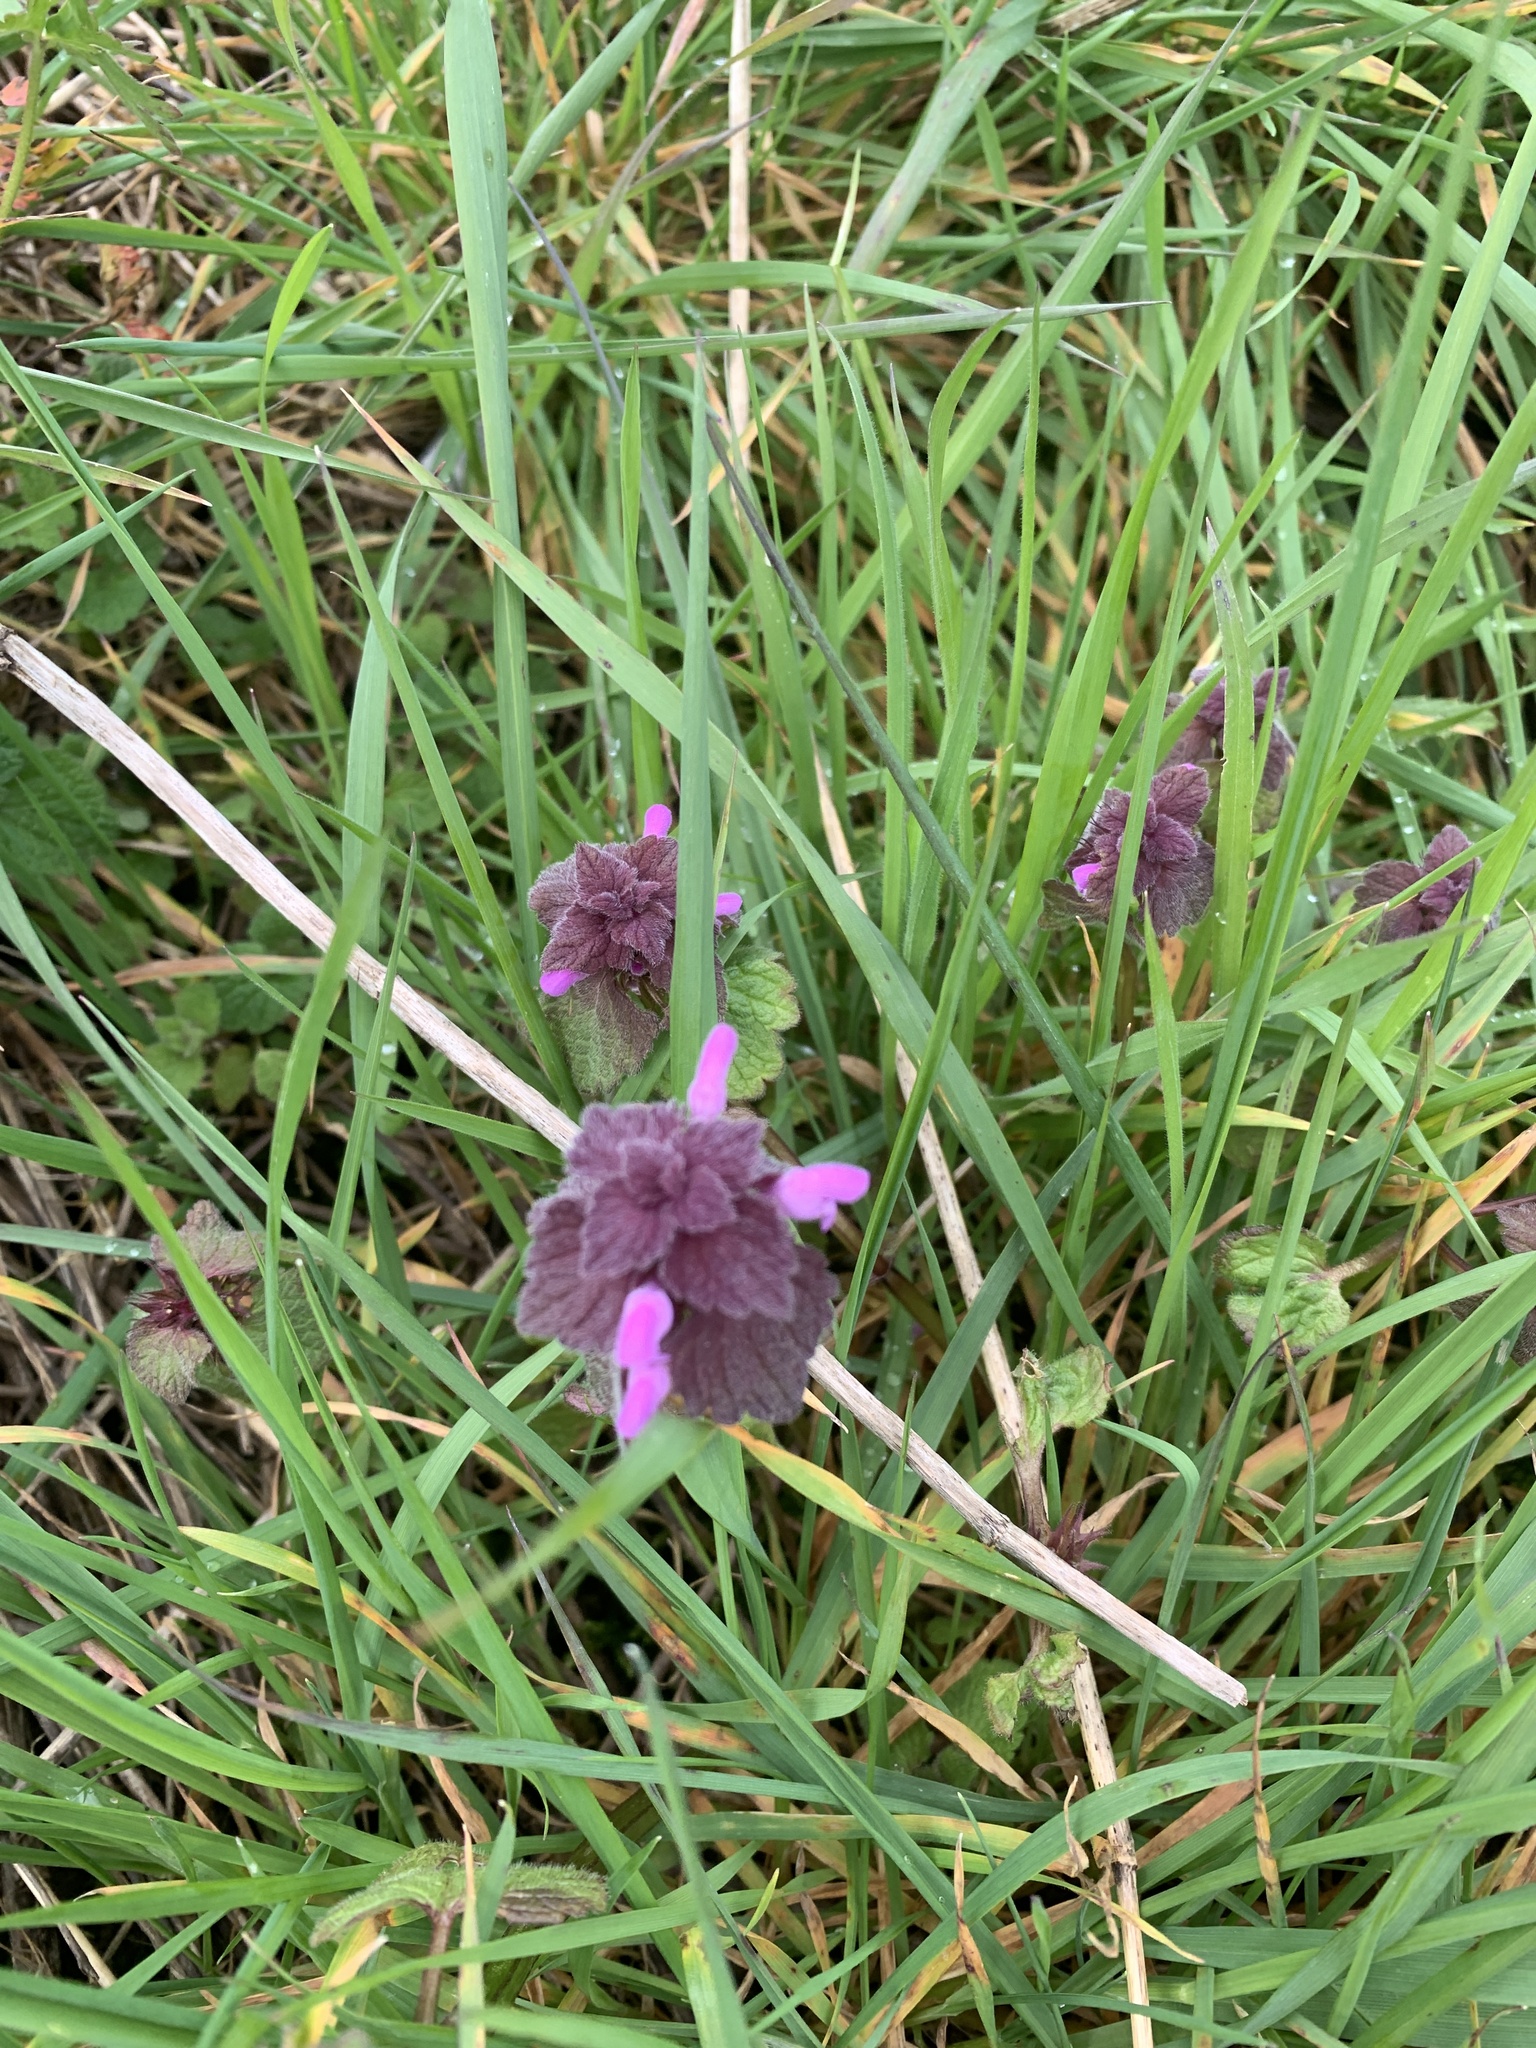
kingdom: Plantae
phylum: Tracheophyta
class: Magnoliopsida
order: Lamiales
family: Lamiaceae
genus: Lamium
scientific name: Lamium purpureum
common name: Red dead-nettle
